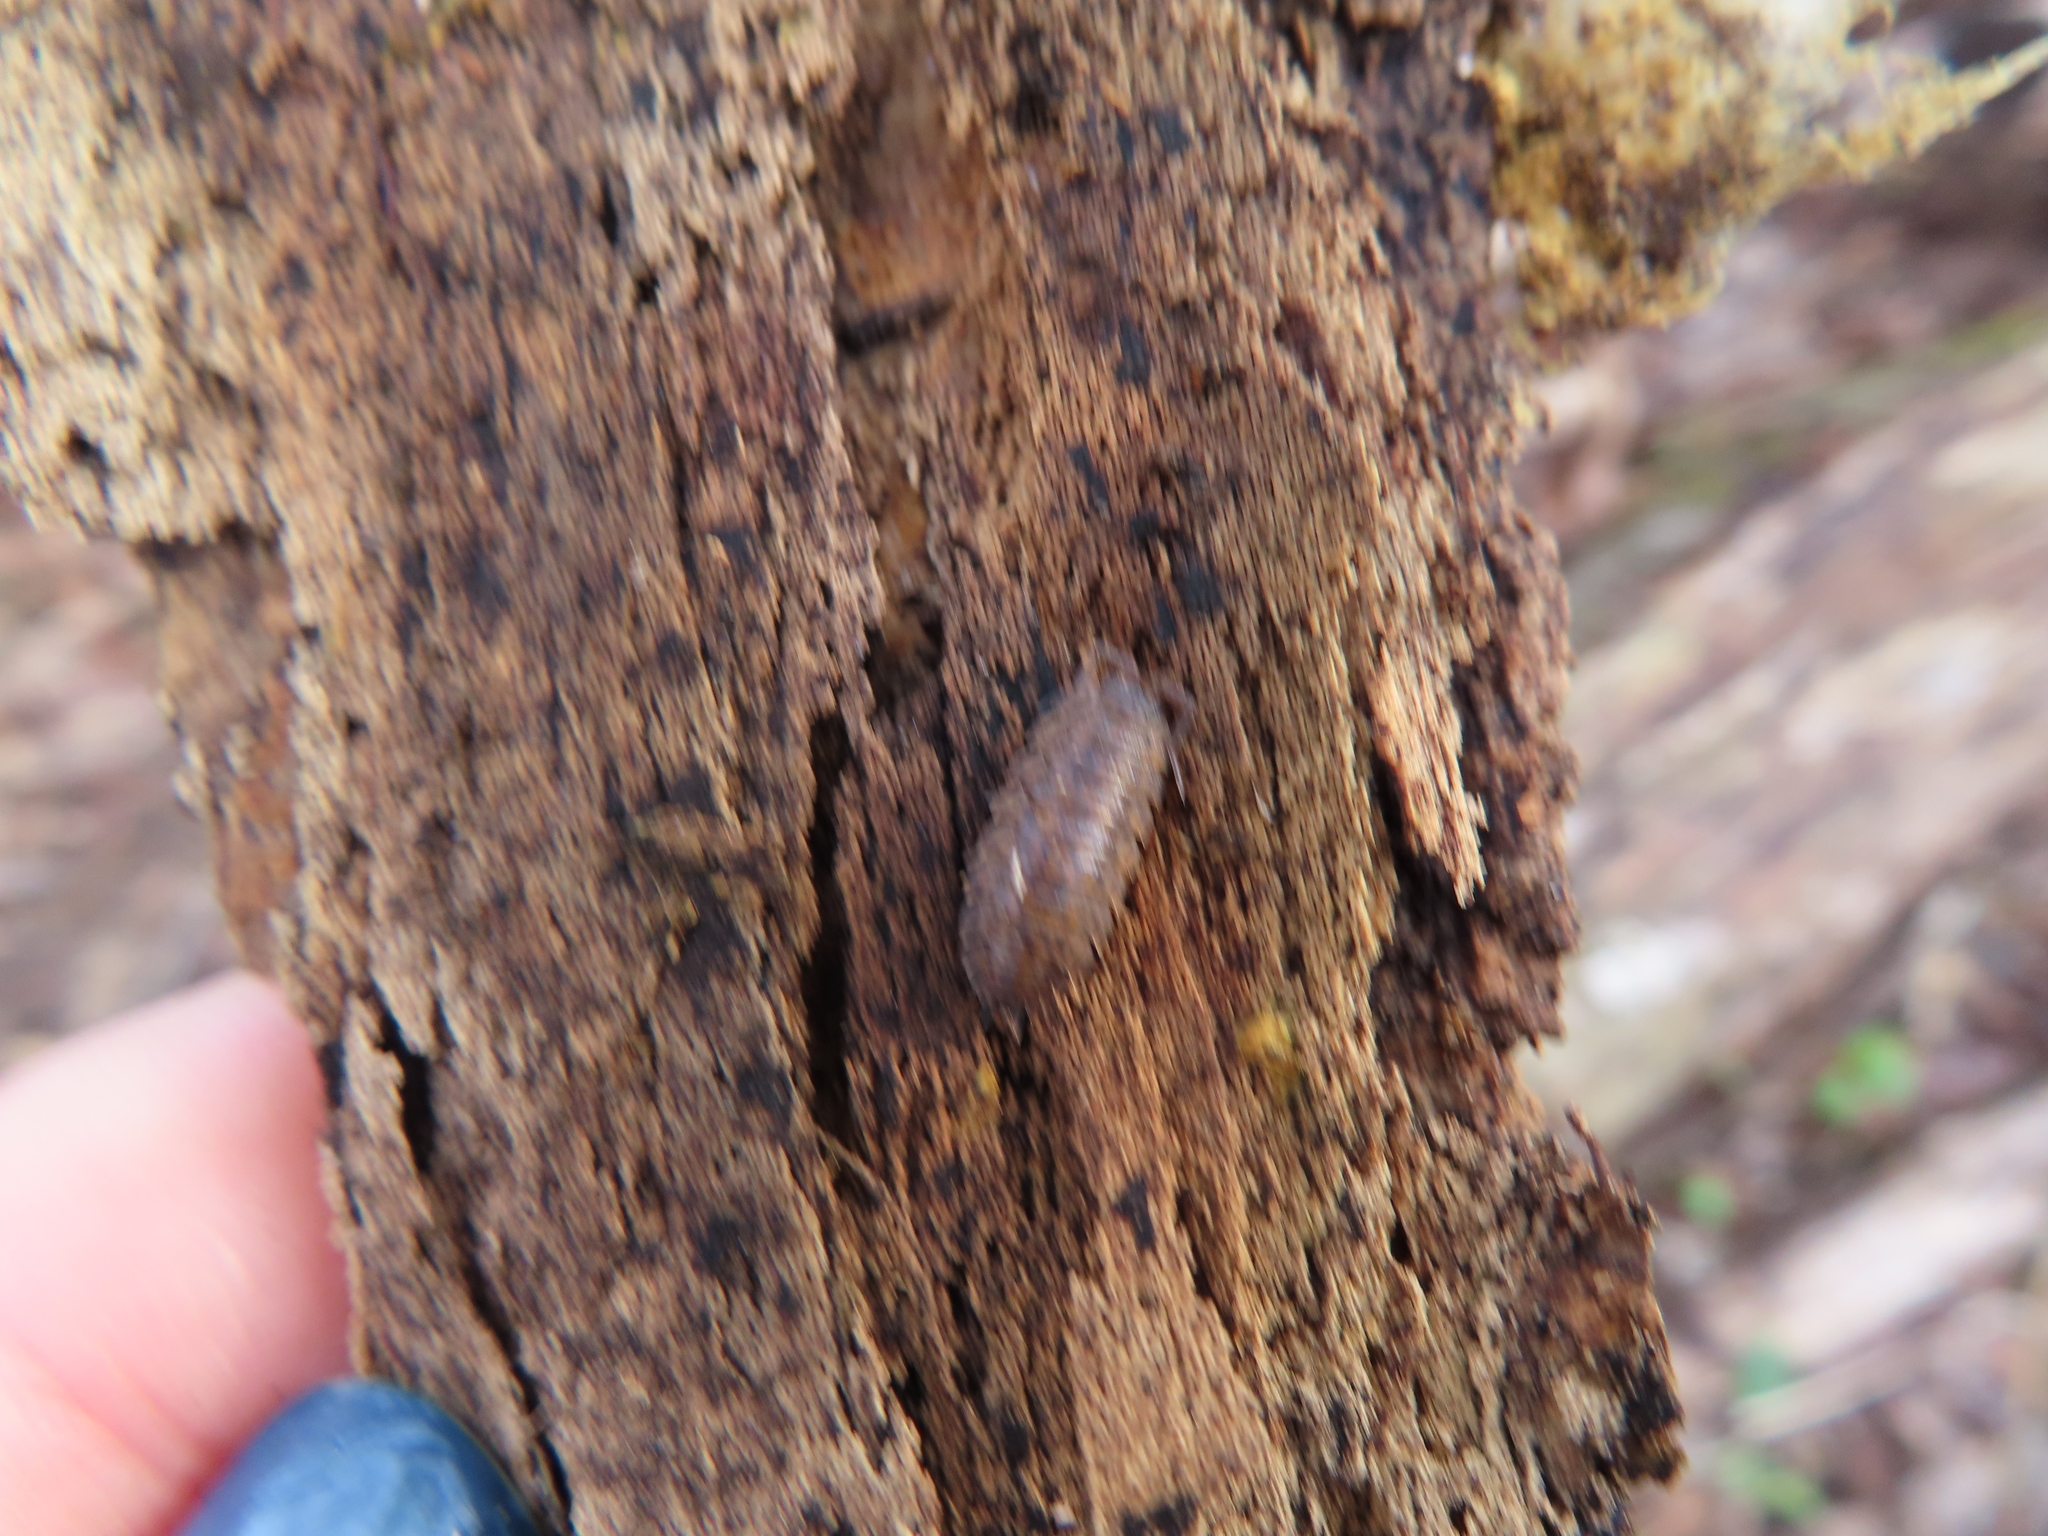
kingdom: Animalia
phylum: Arthropoda
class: Malacostraca
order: Isopoda
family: Trachelipodidae
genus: Trachelipus
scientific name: Trachelipus rathkii
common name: Isopod
